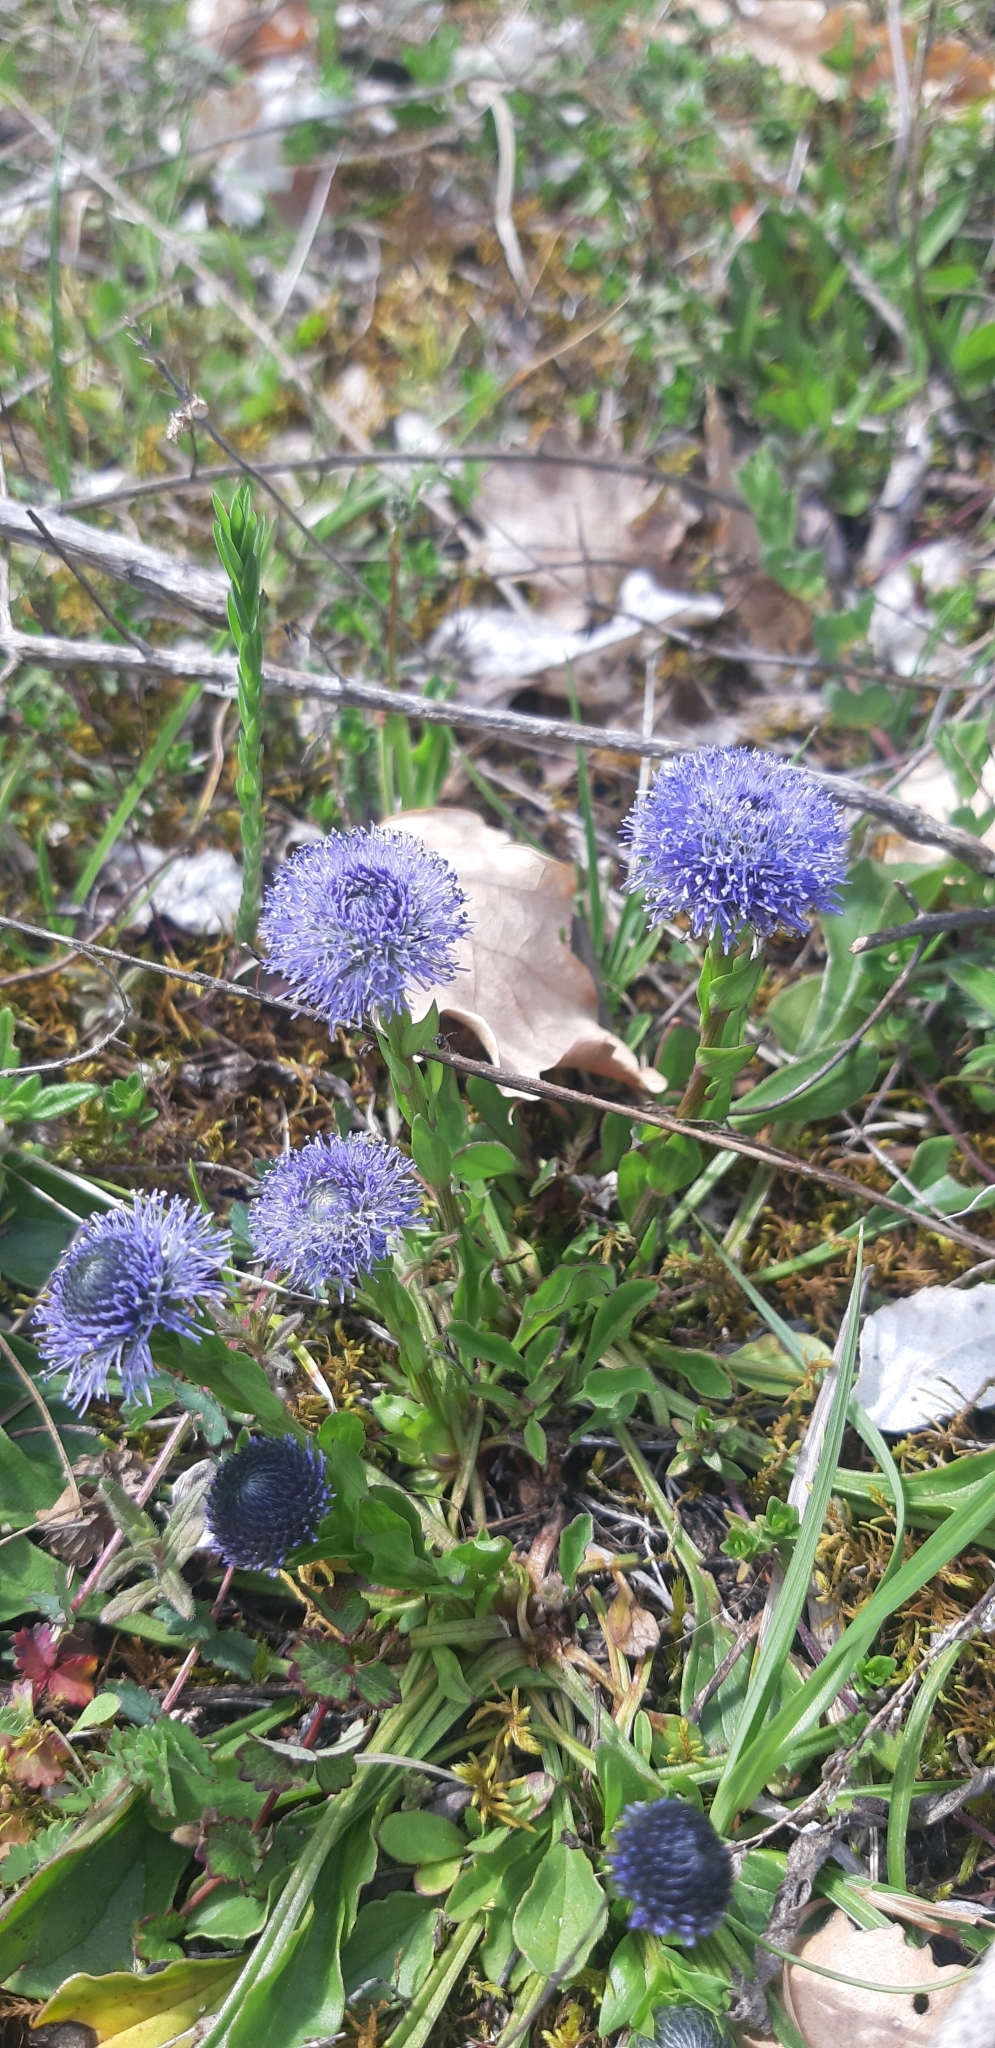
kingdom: Plantae
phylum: Tracheophyta
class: Magnoliopsida
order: Lamiales
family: Plantaginaceae
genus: Globularia
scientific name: Globularia bisnagarica
